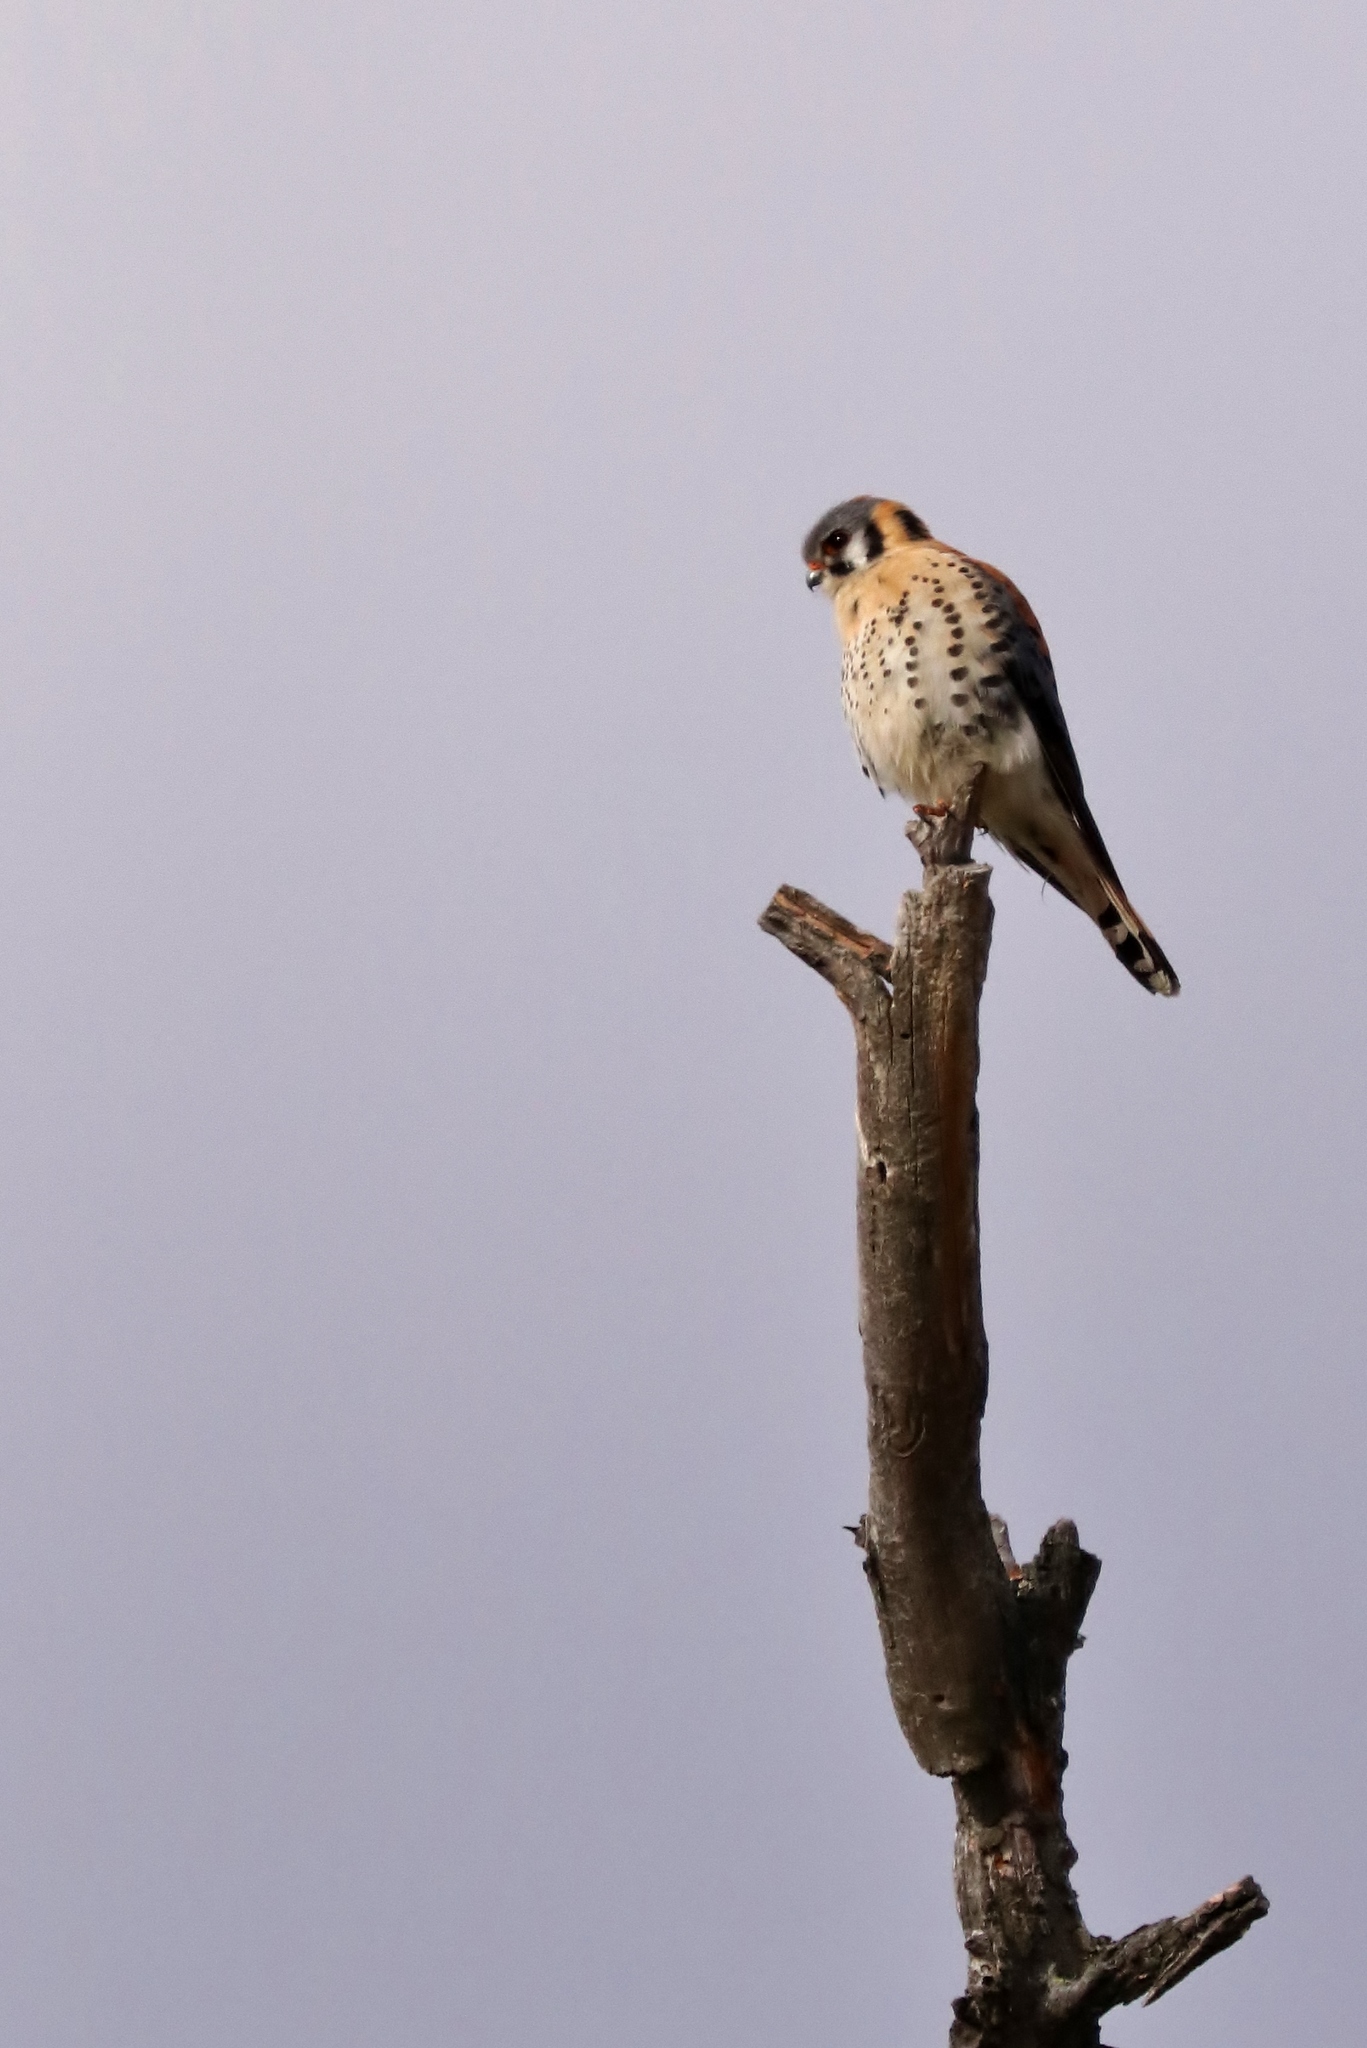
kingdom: Animalia
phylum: Chordata
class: Aves
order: Falconiformes
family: Falconidae
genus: Falco
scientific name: Falco sparverius
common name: American kestrel
